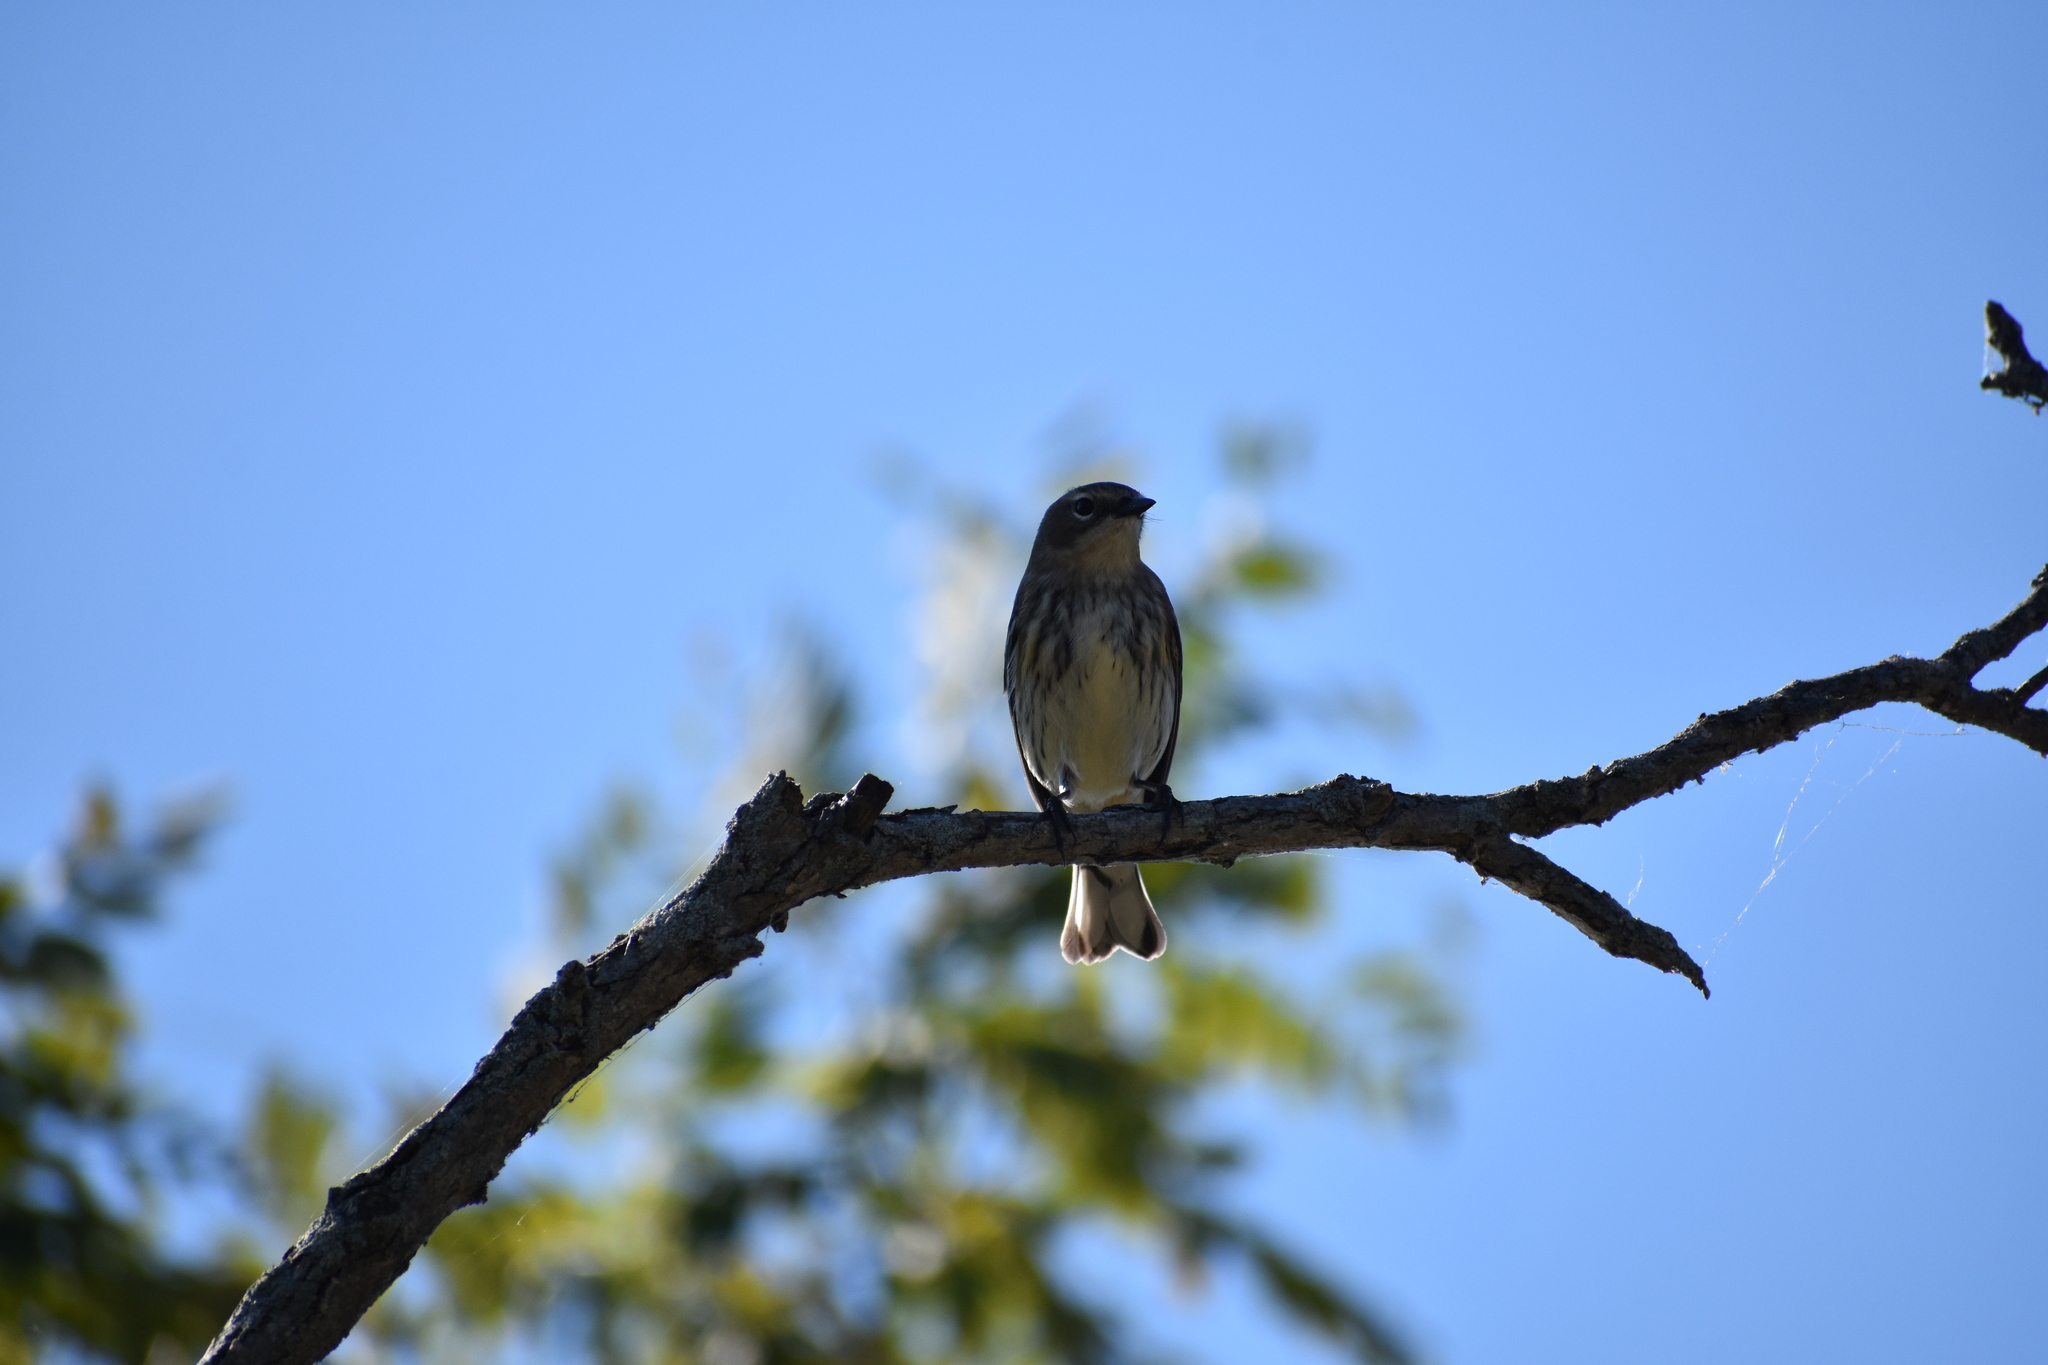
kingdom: Animalia
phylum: Chordata
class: Aves
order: Passeriformes
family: Parulidae
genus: Setophaga
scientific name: Setophaga coronata
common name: Myrtle warbler
